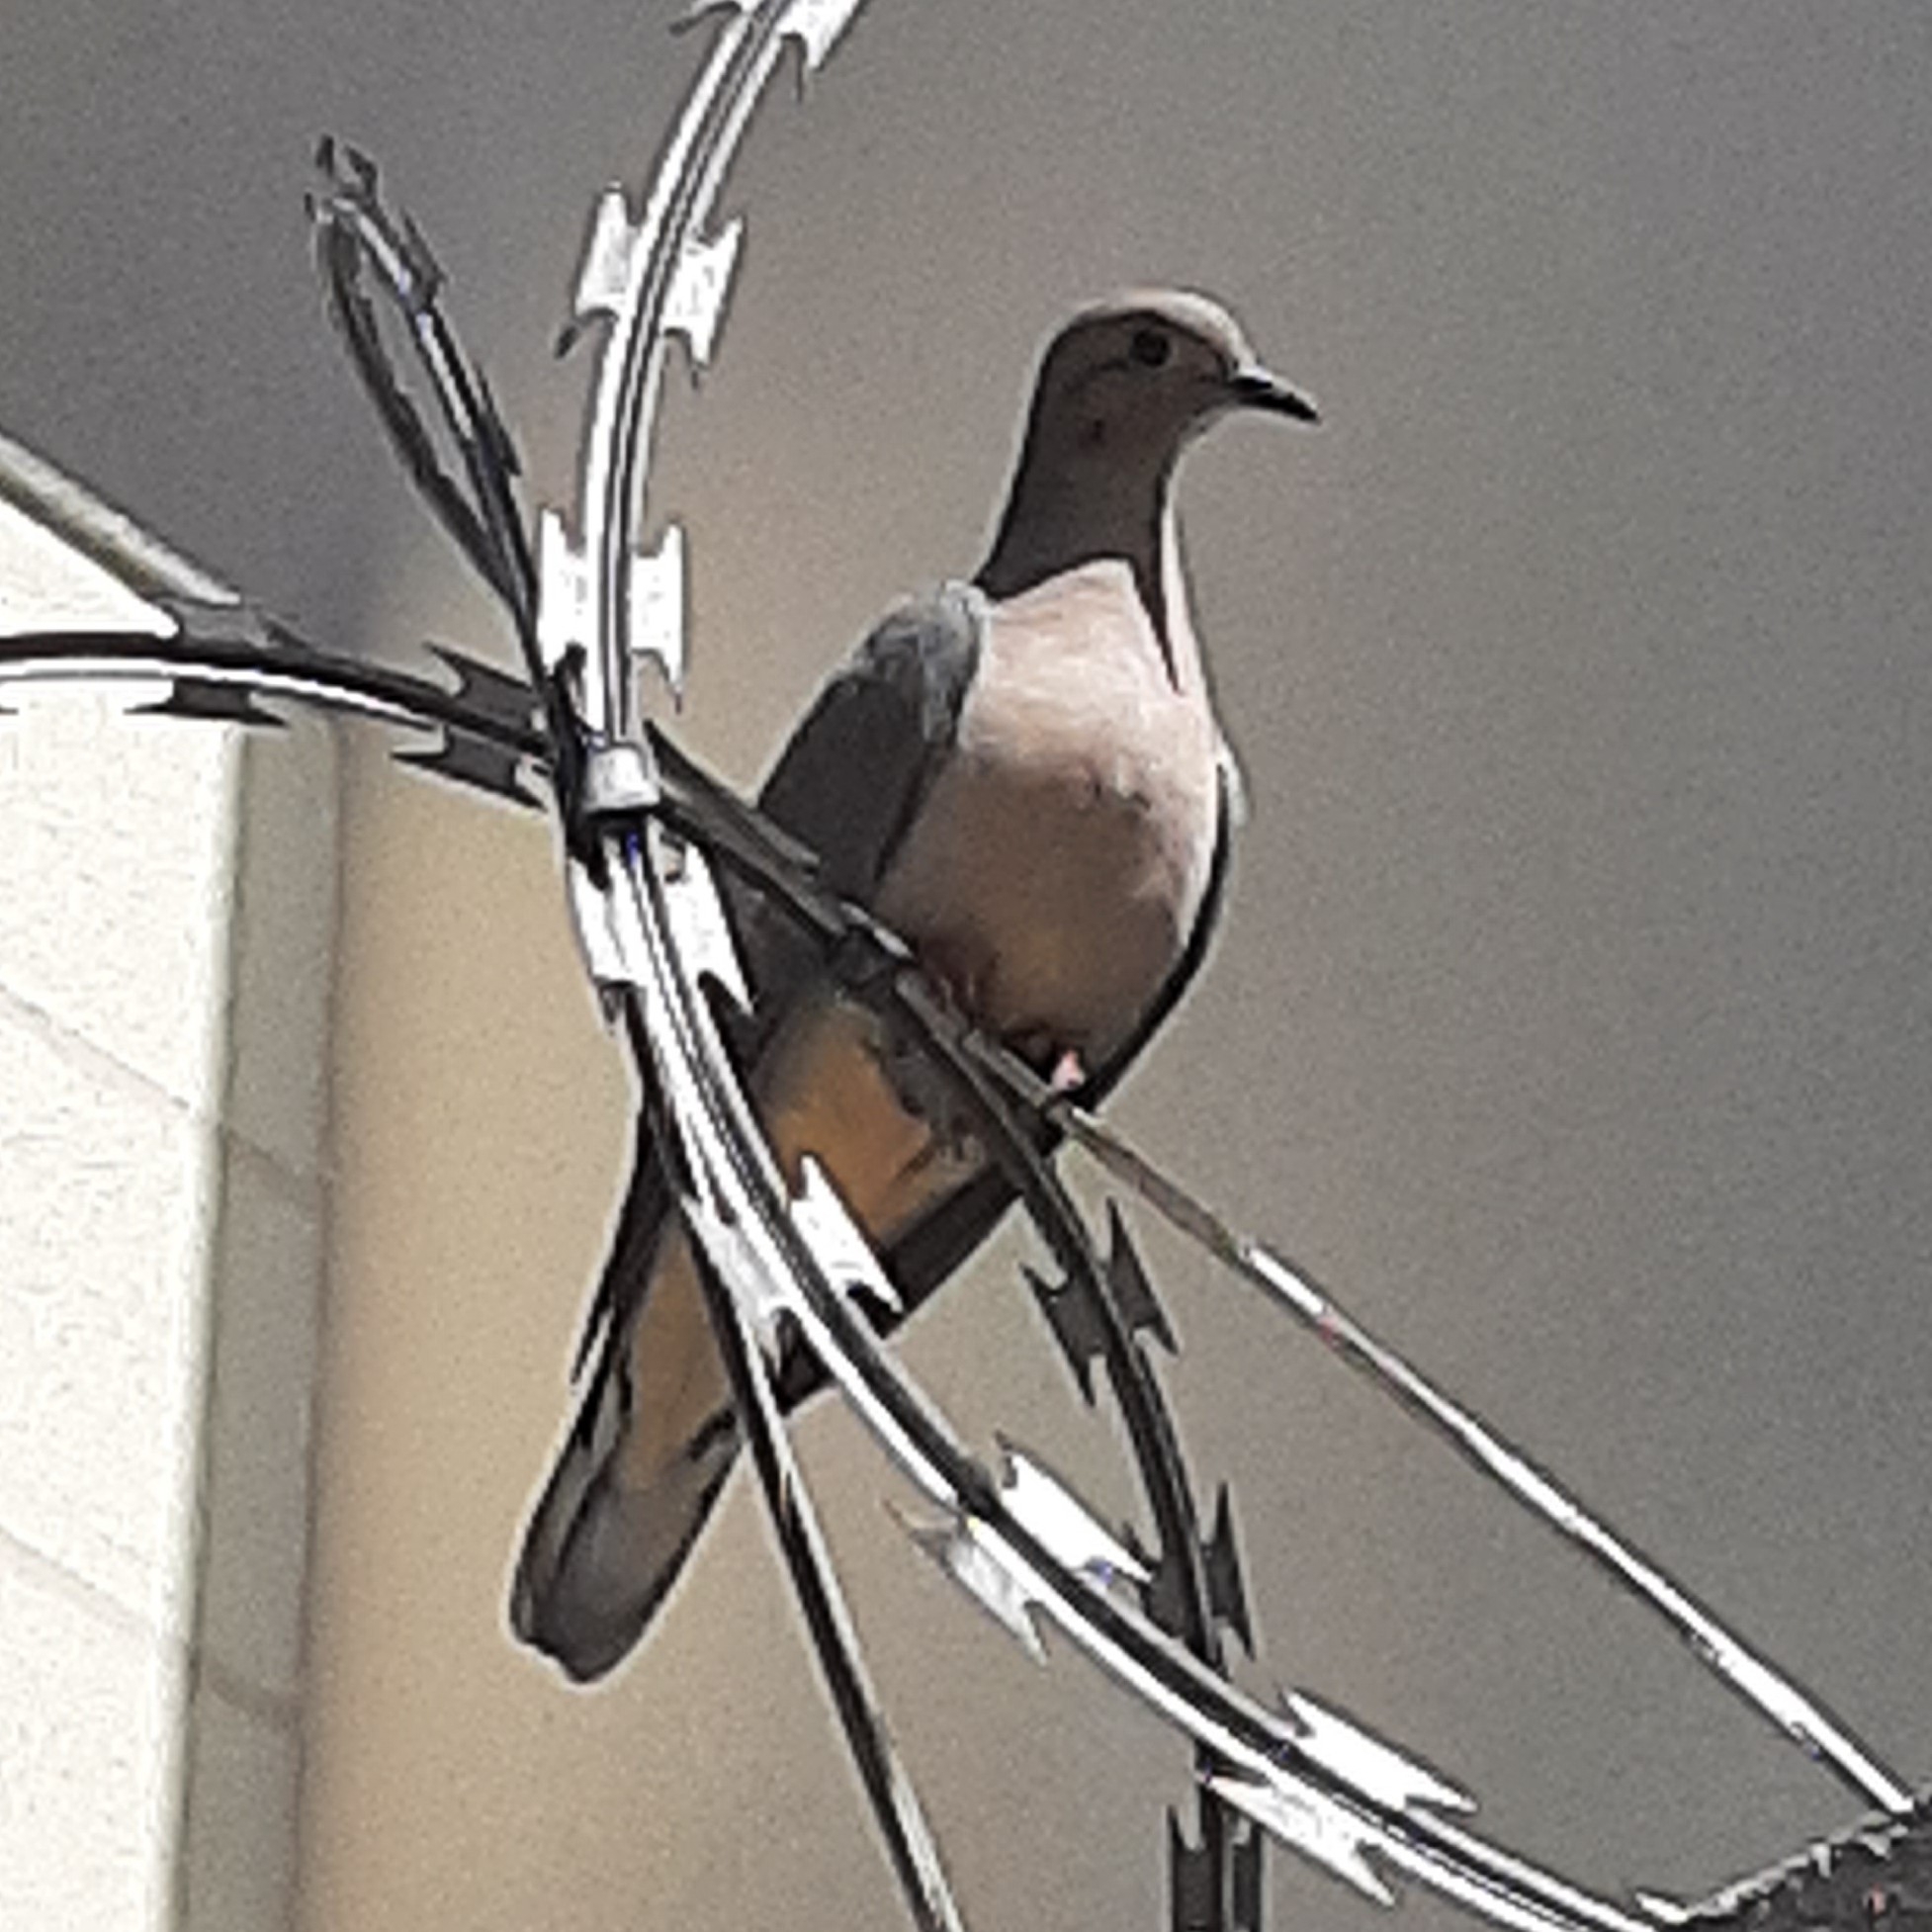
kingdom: Animalia
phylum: Chordata
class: Aves
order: Columbiformes
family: Columbidae
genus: Zenaida
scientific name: Zenaida auriculata
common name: Eared dove
